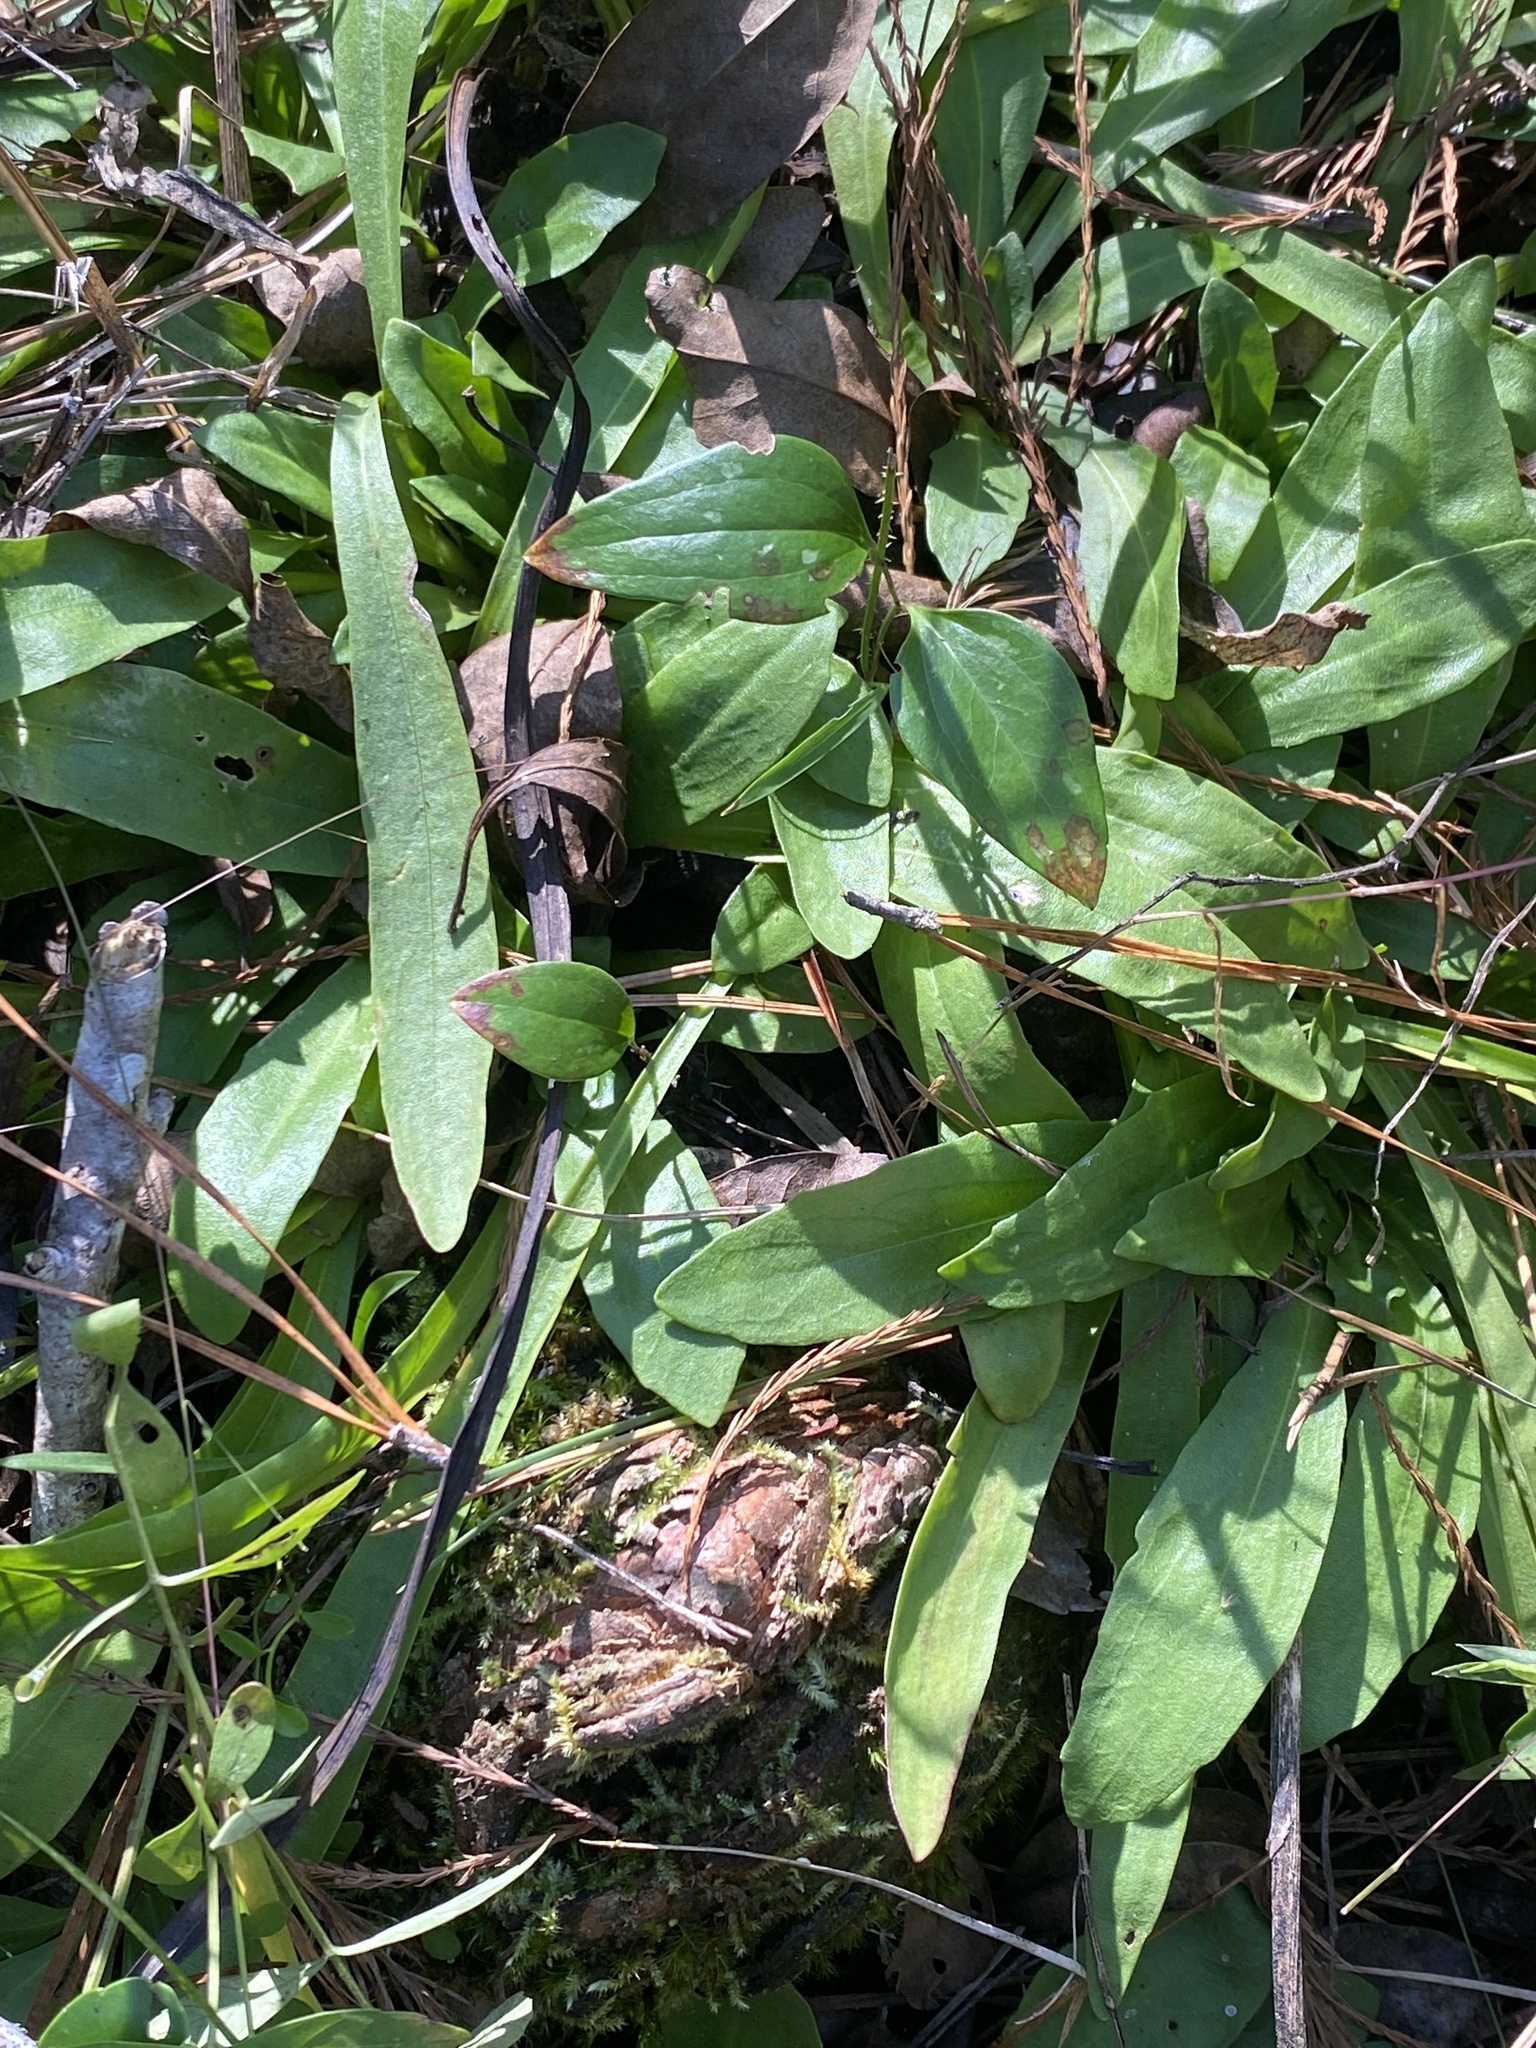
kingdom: Plantae
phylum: Tracheophyta
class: Magnoliopsida
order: Asterales
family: Asteraceae
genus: Helenium
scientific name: Helenium pinnatifidum
